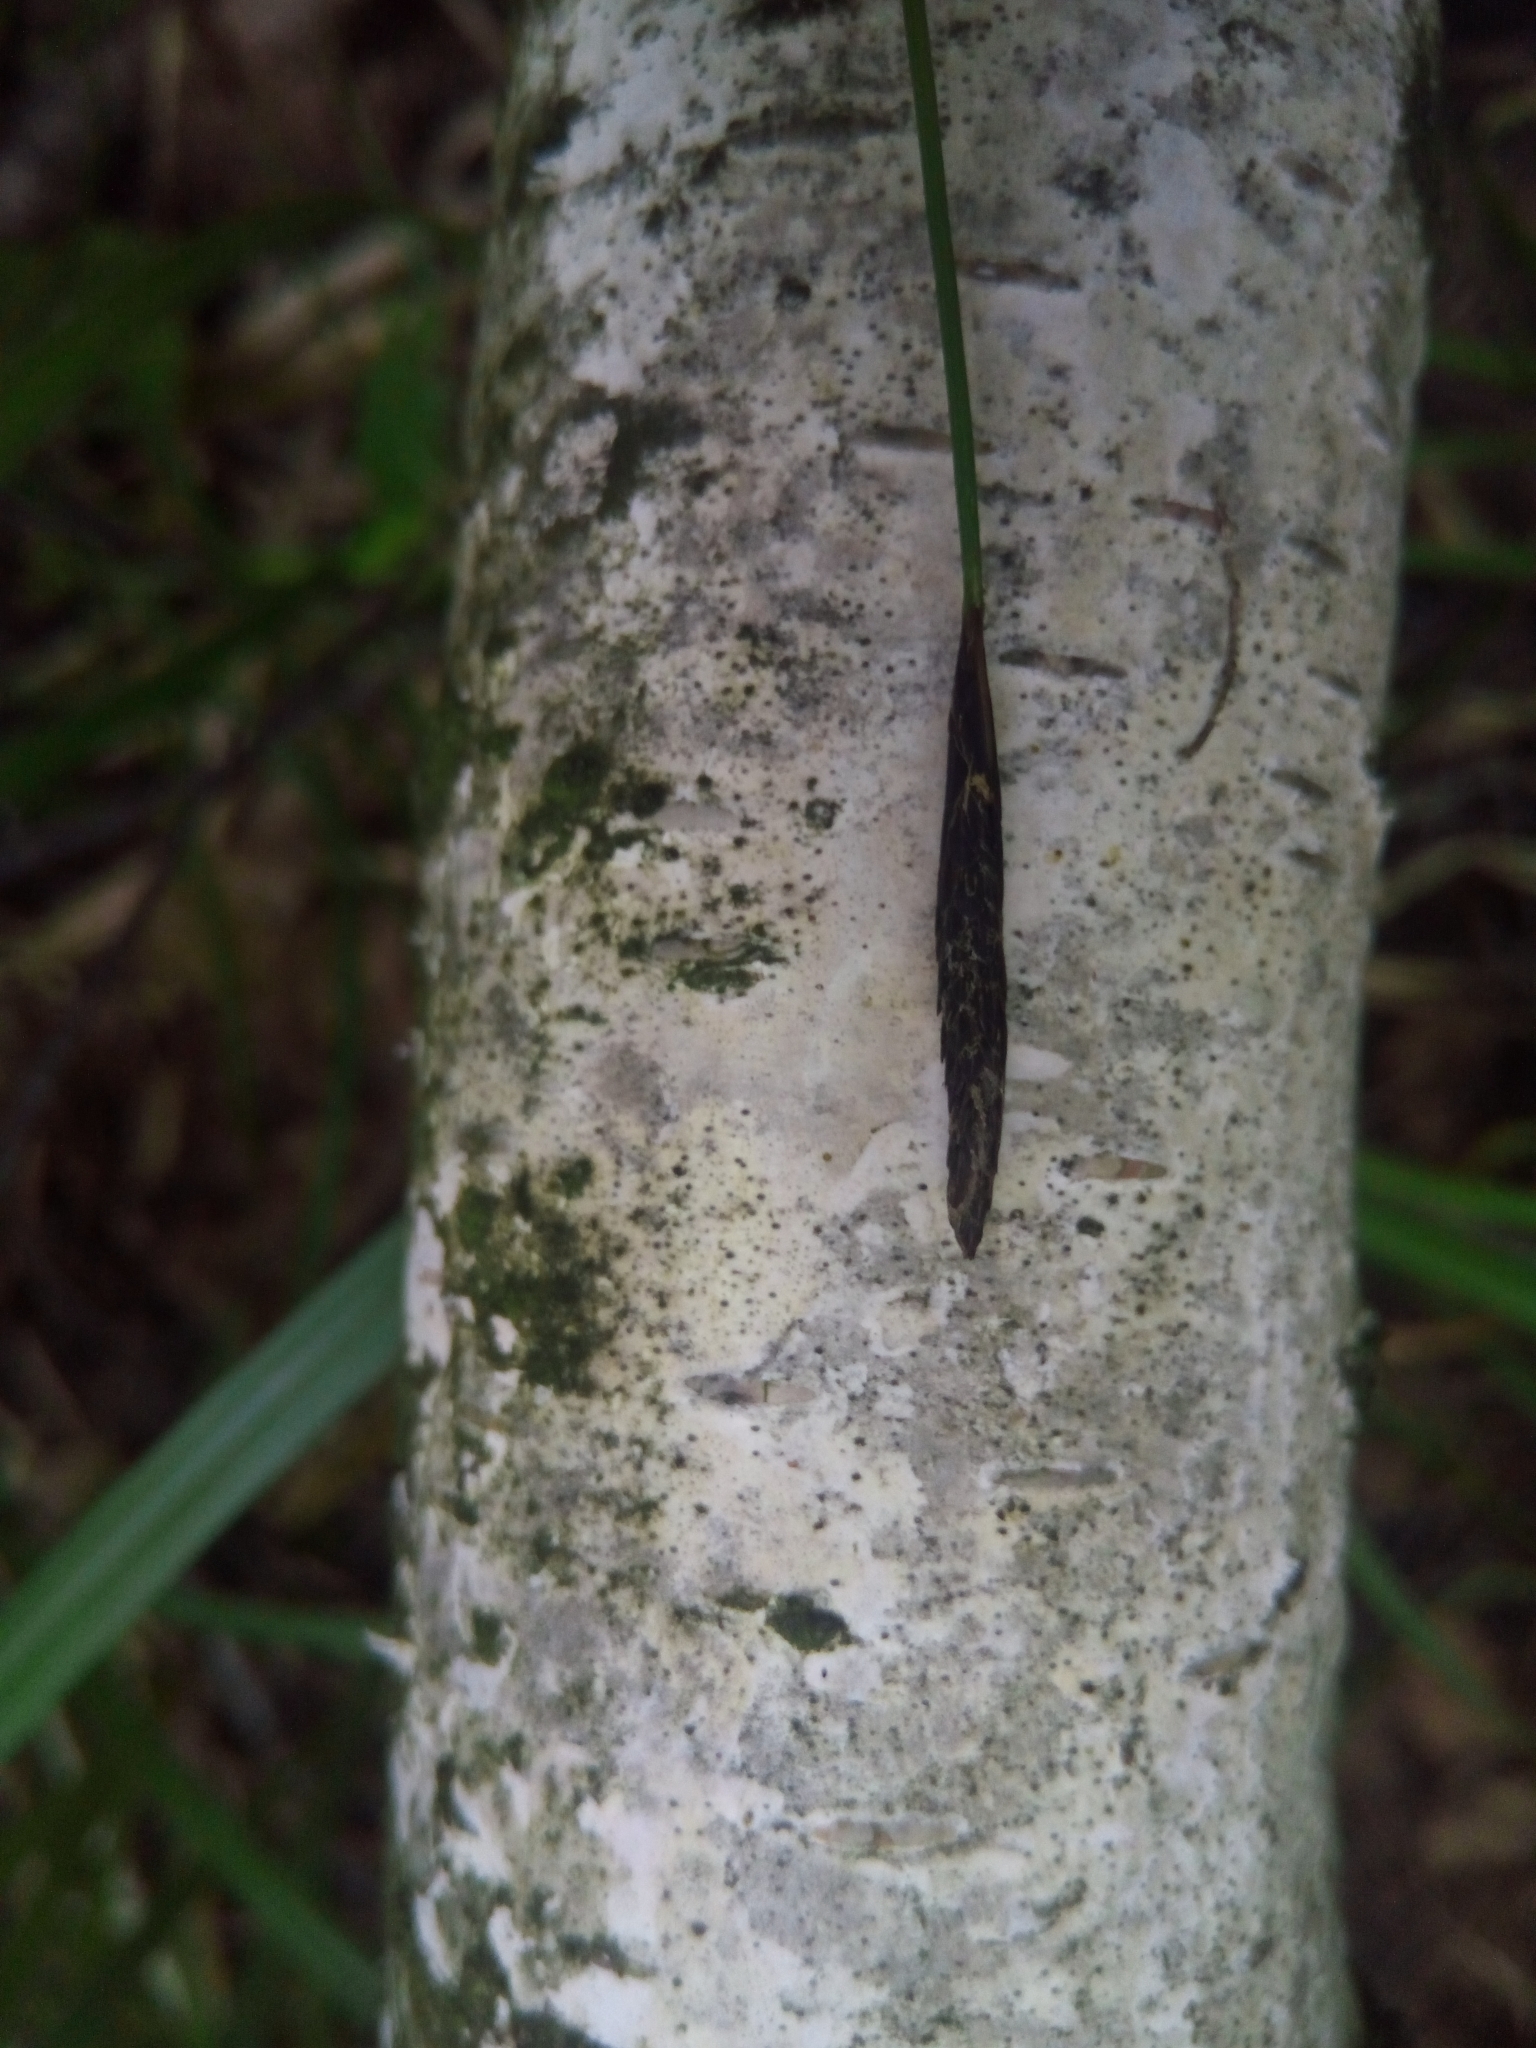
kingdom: Plantae
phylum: Tracheophyta
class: Liliopsida
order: Poales
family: Cyperaceae
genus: Carex
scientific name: Carex pilosa
